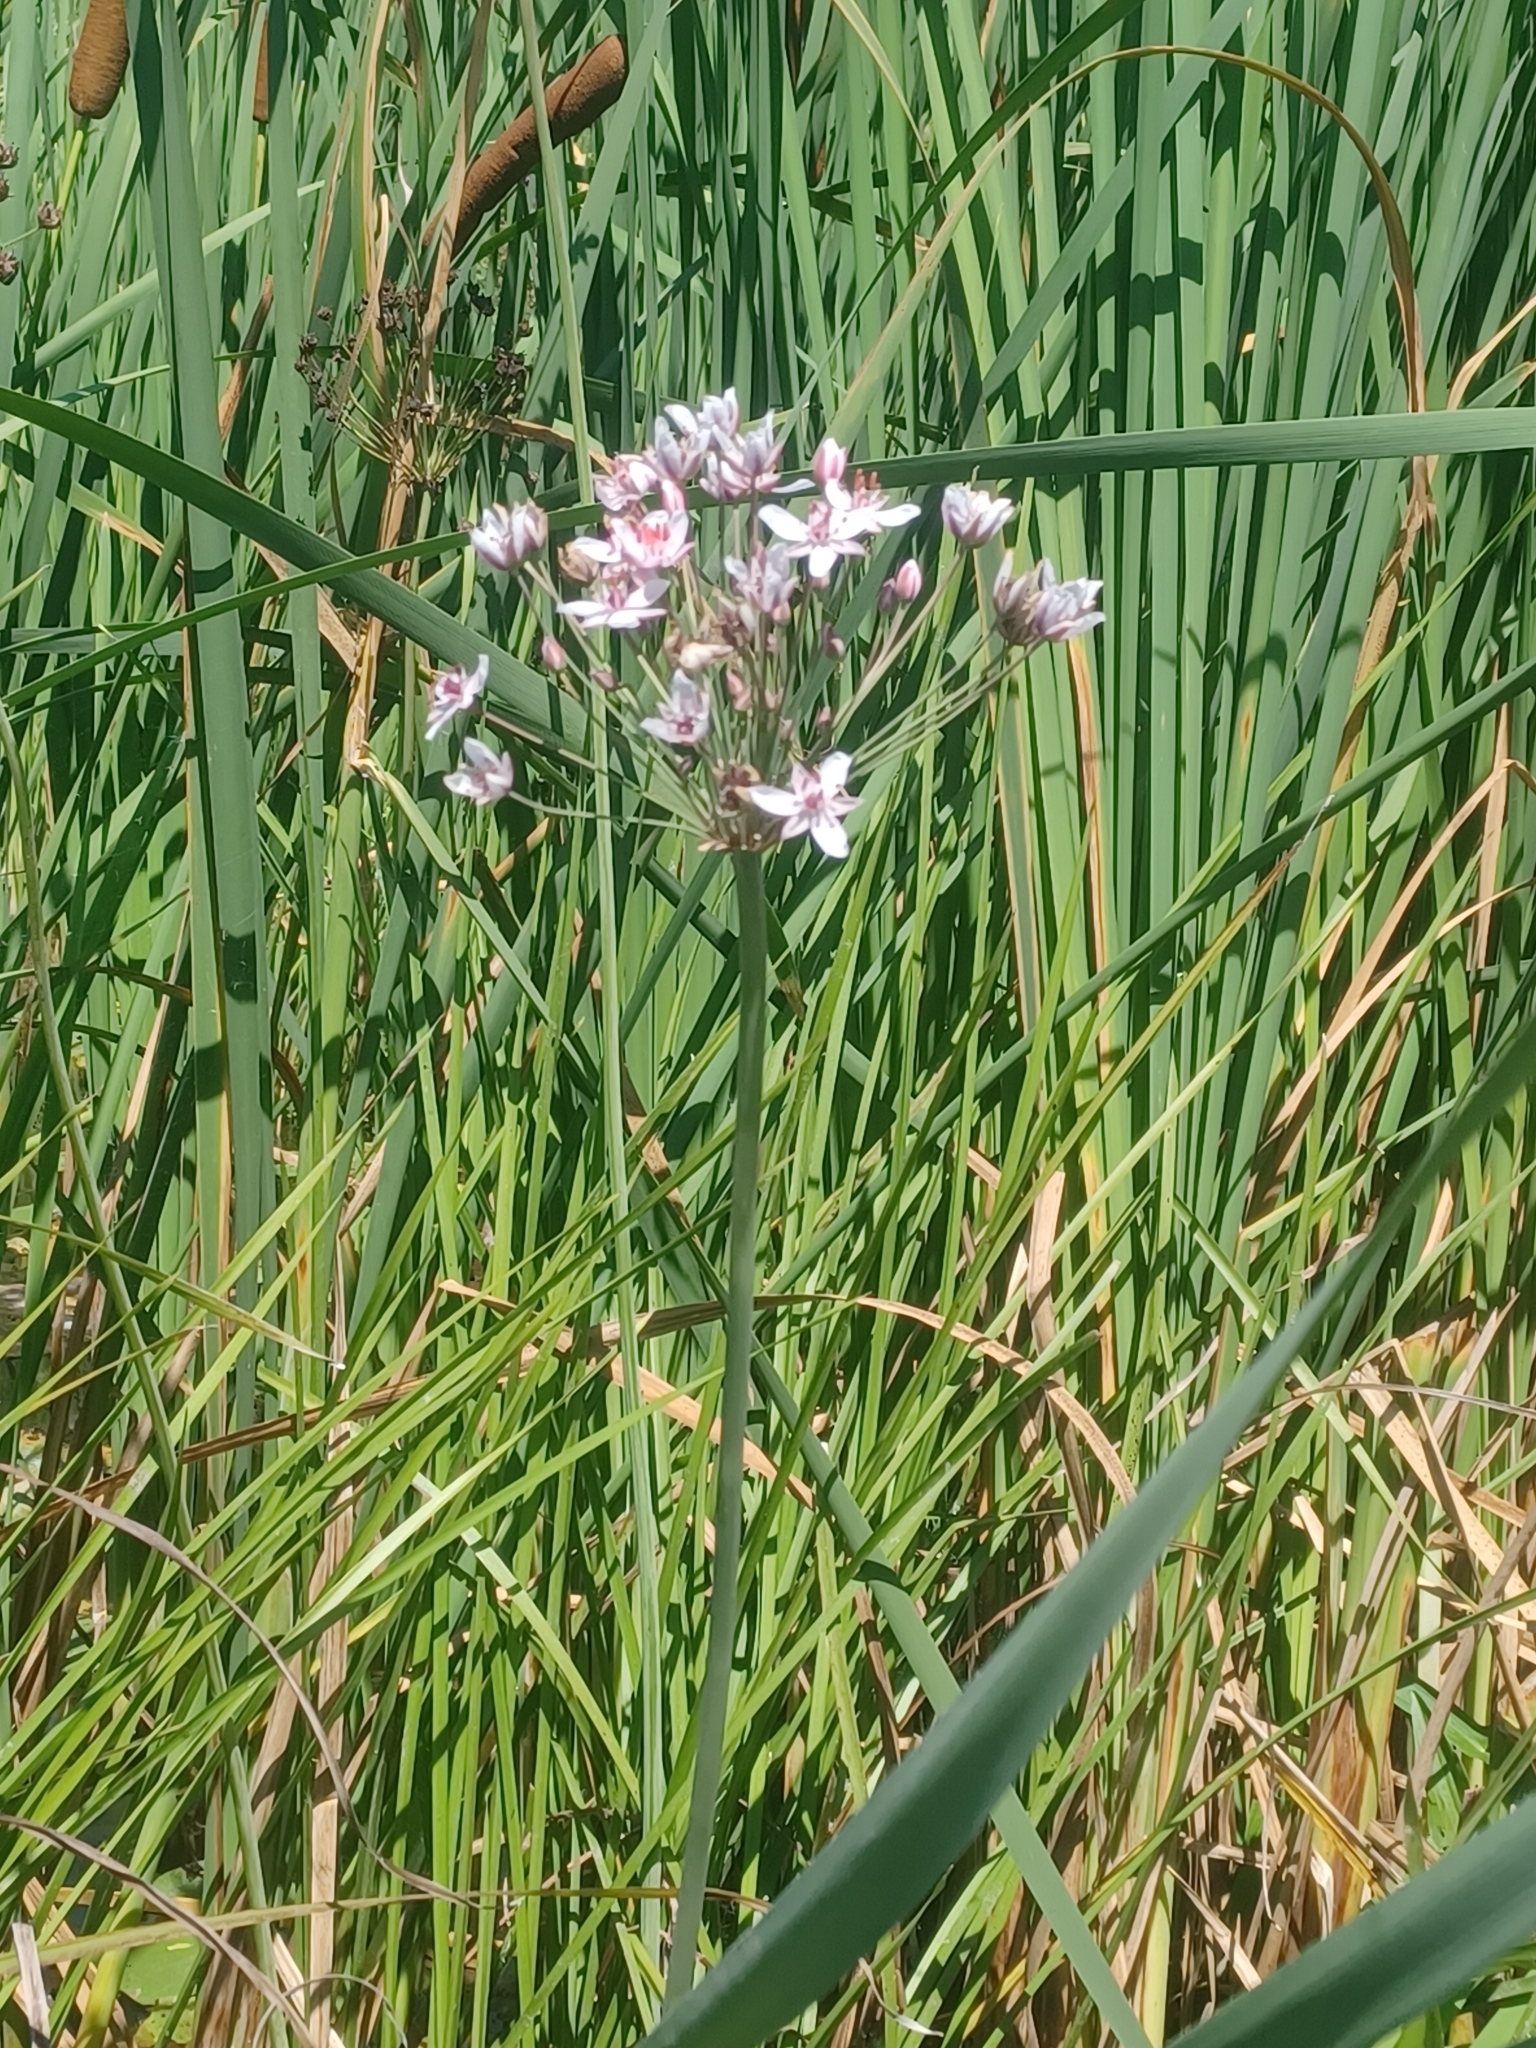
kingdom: Plantae
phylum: Tracheophyta
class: Liliopsida
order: Alismatales
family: Butomaceae
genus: Butomus
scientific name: Butomus umbellatus
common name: Flowering-rush
